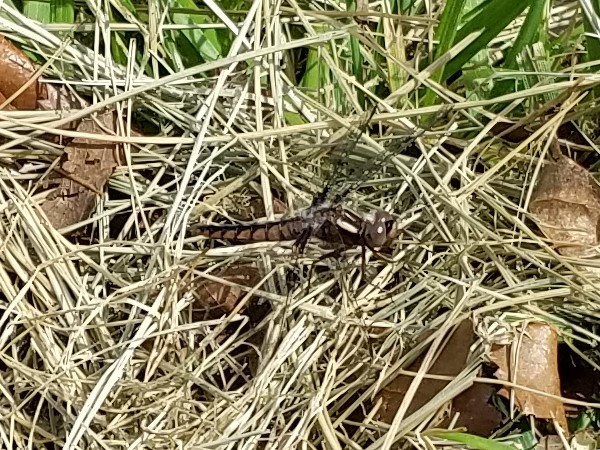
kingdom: Animalia
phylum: Arthropoda
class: Insecta
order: Odonata
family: Libellulidae
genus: Ladona
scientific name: Ladona deplanata
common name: Blue corporal
